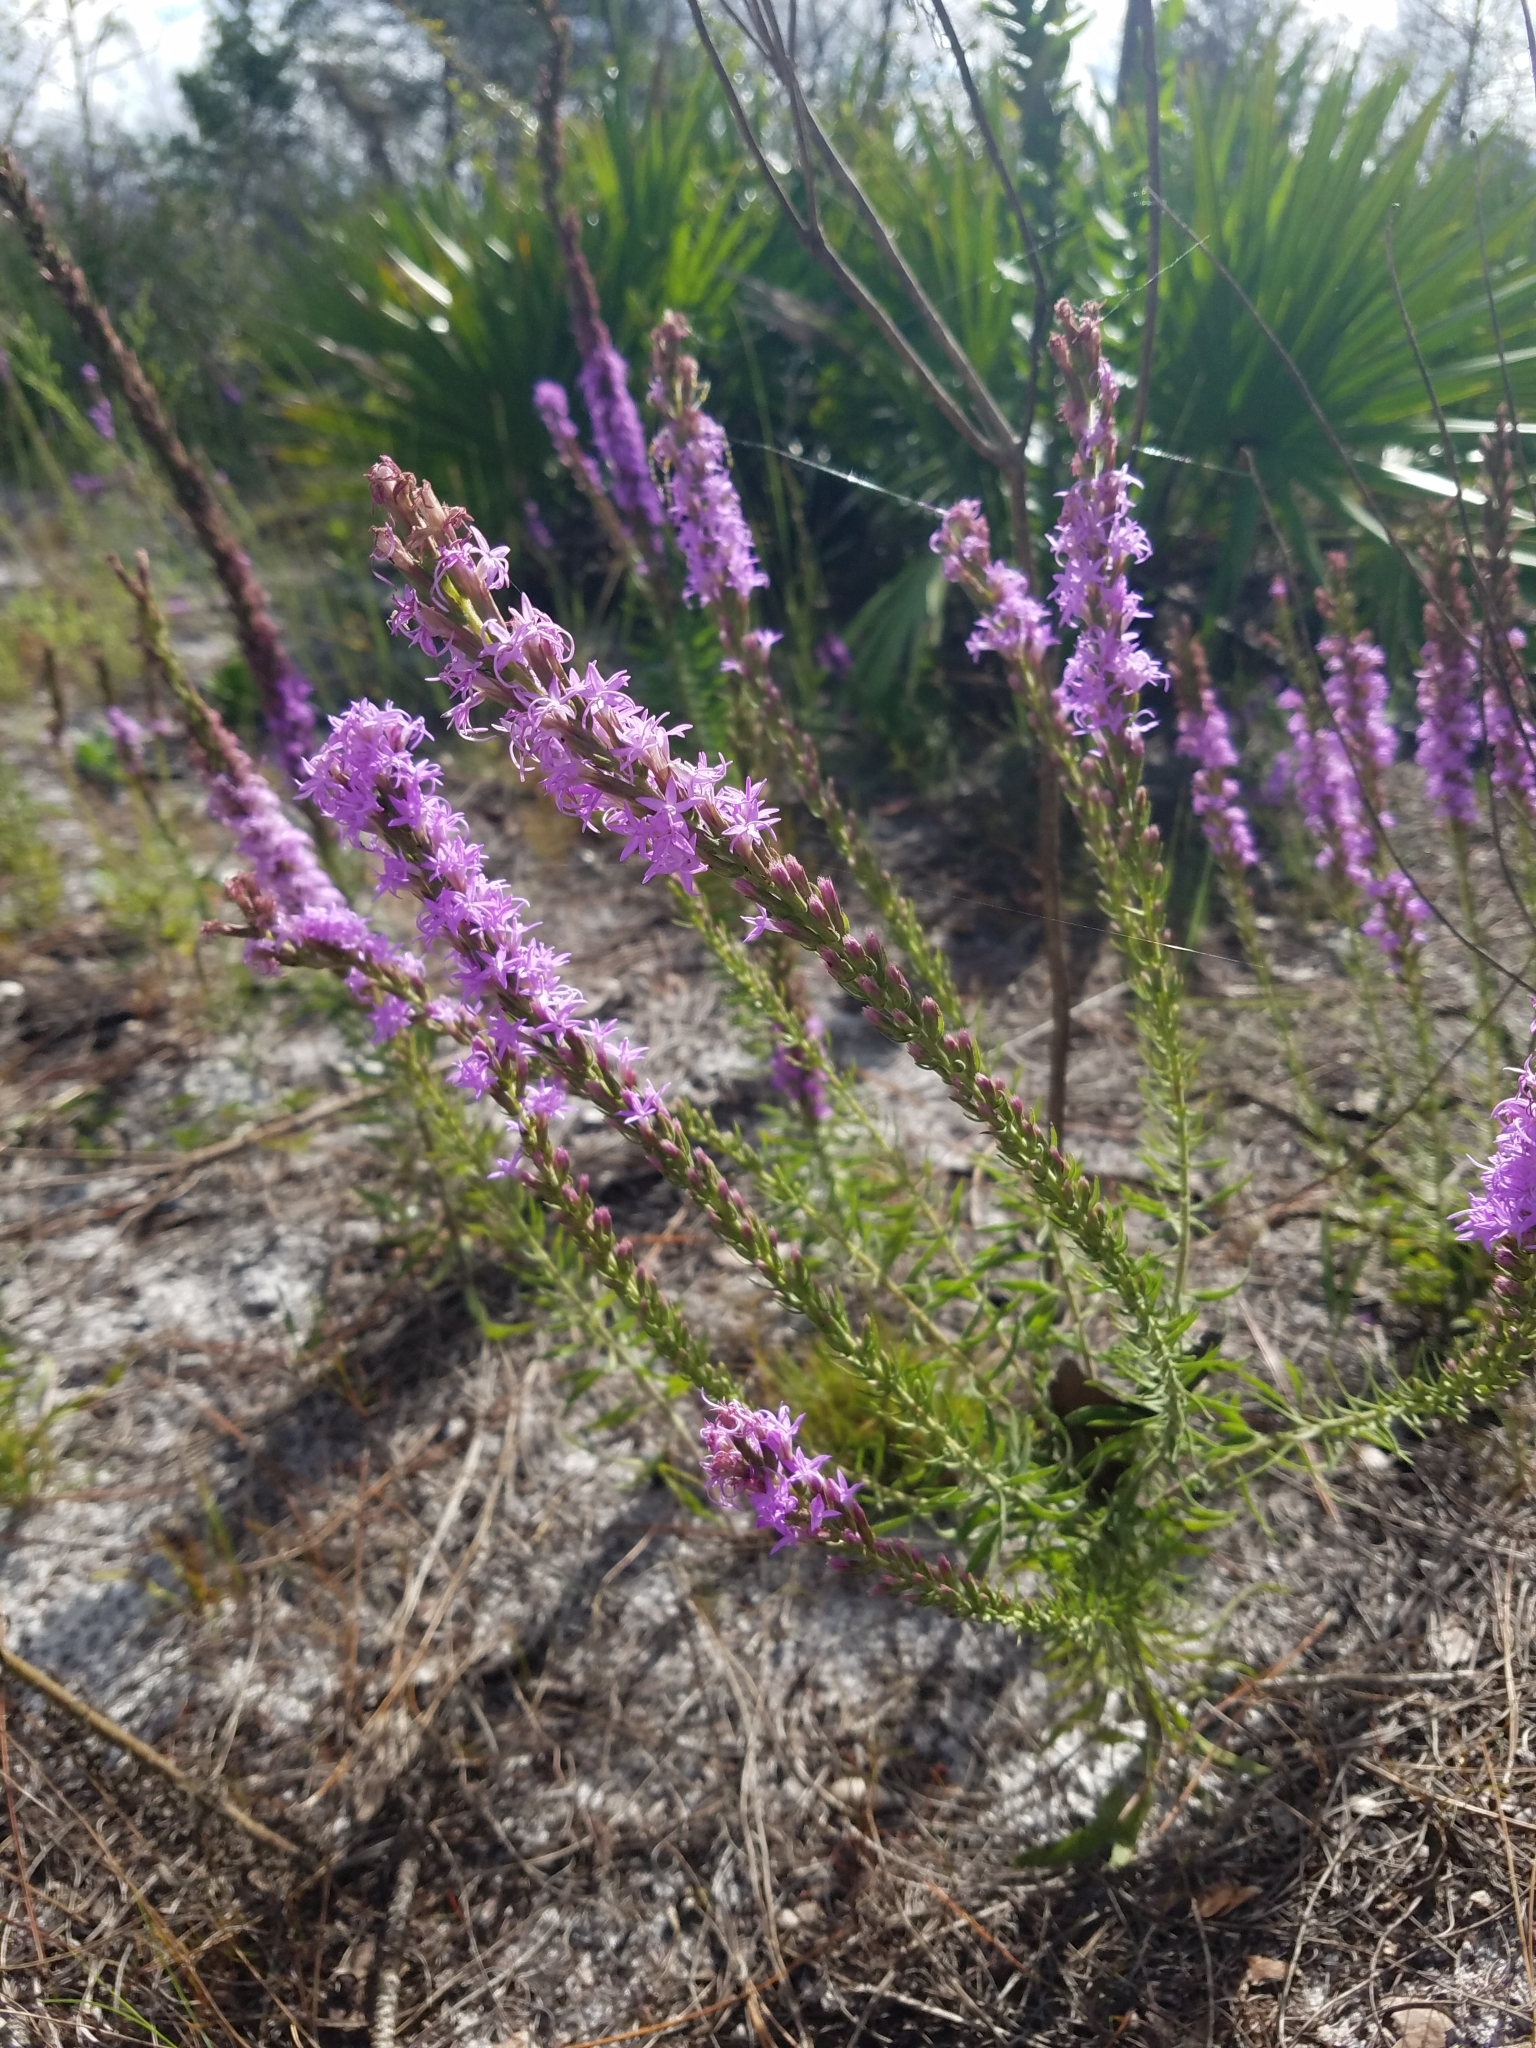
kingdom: Plantae
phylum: Tracheophyta
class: Magnoliopsida
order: Asterales
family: Asteraceae
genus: Liatris
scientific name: Liatris chapmanii
